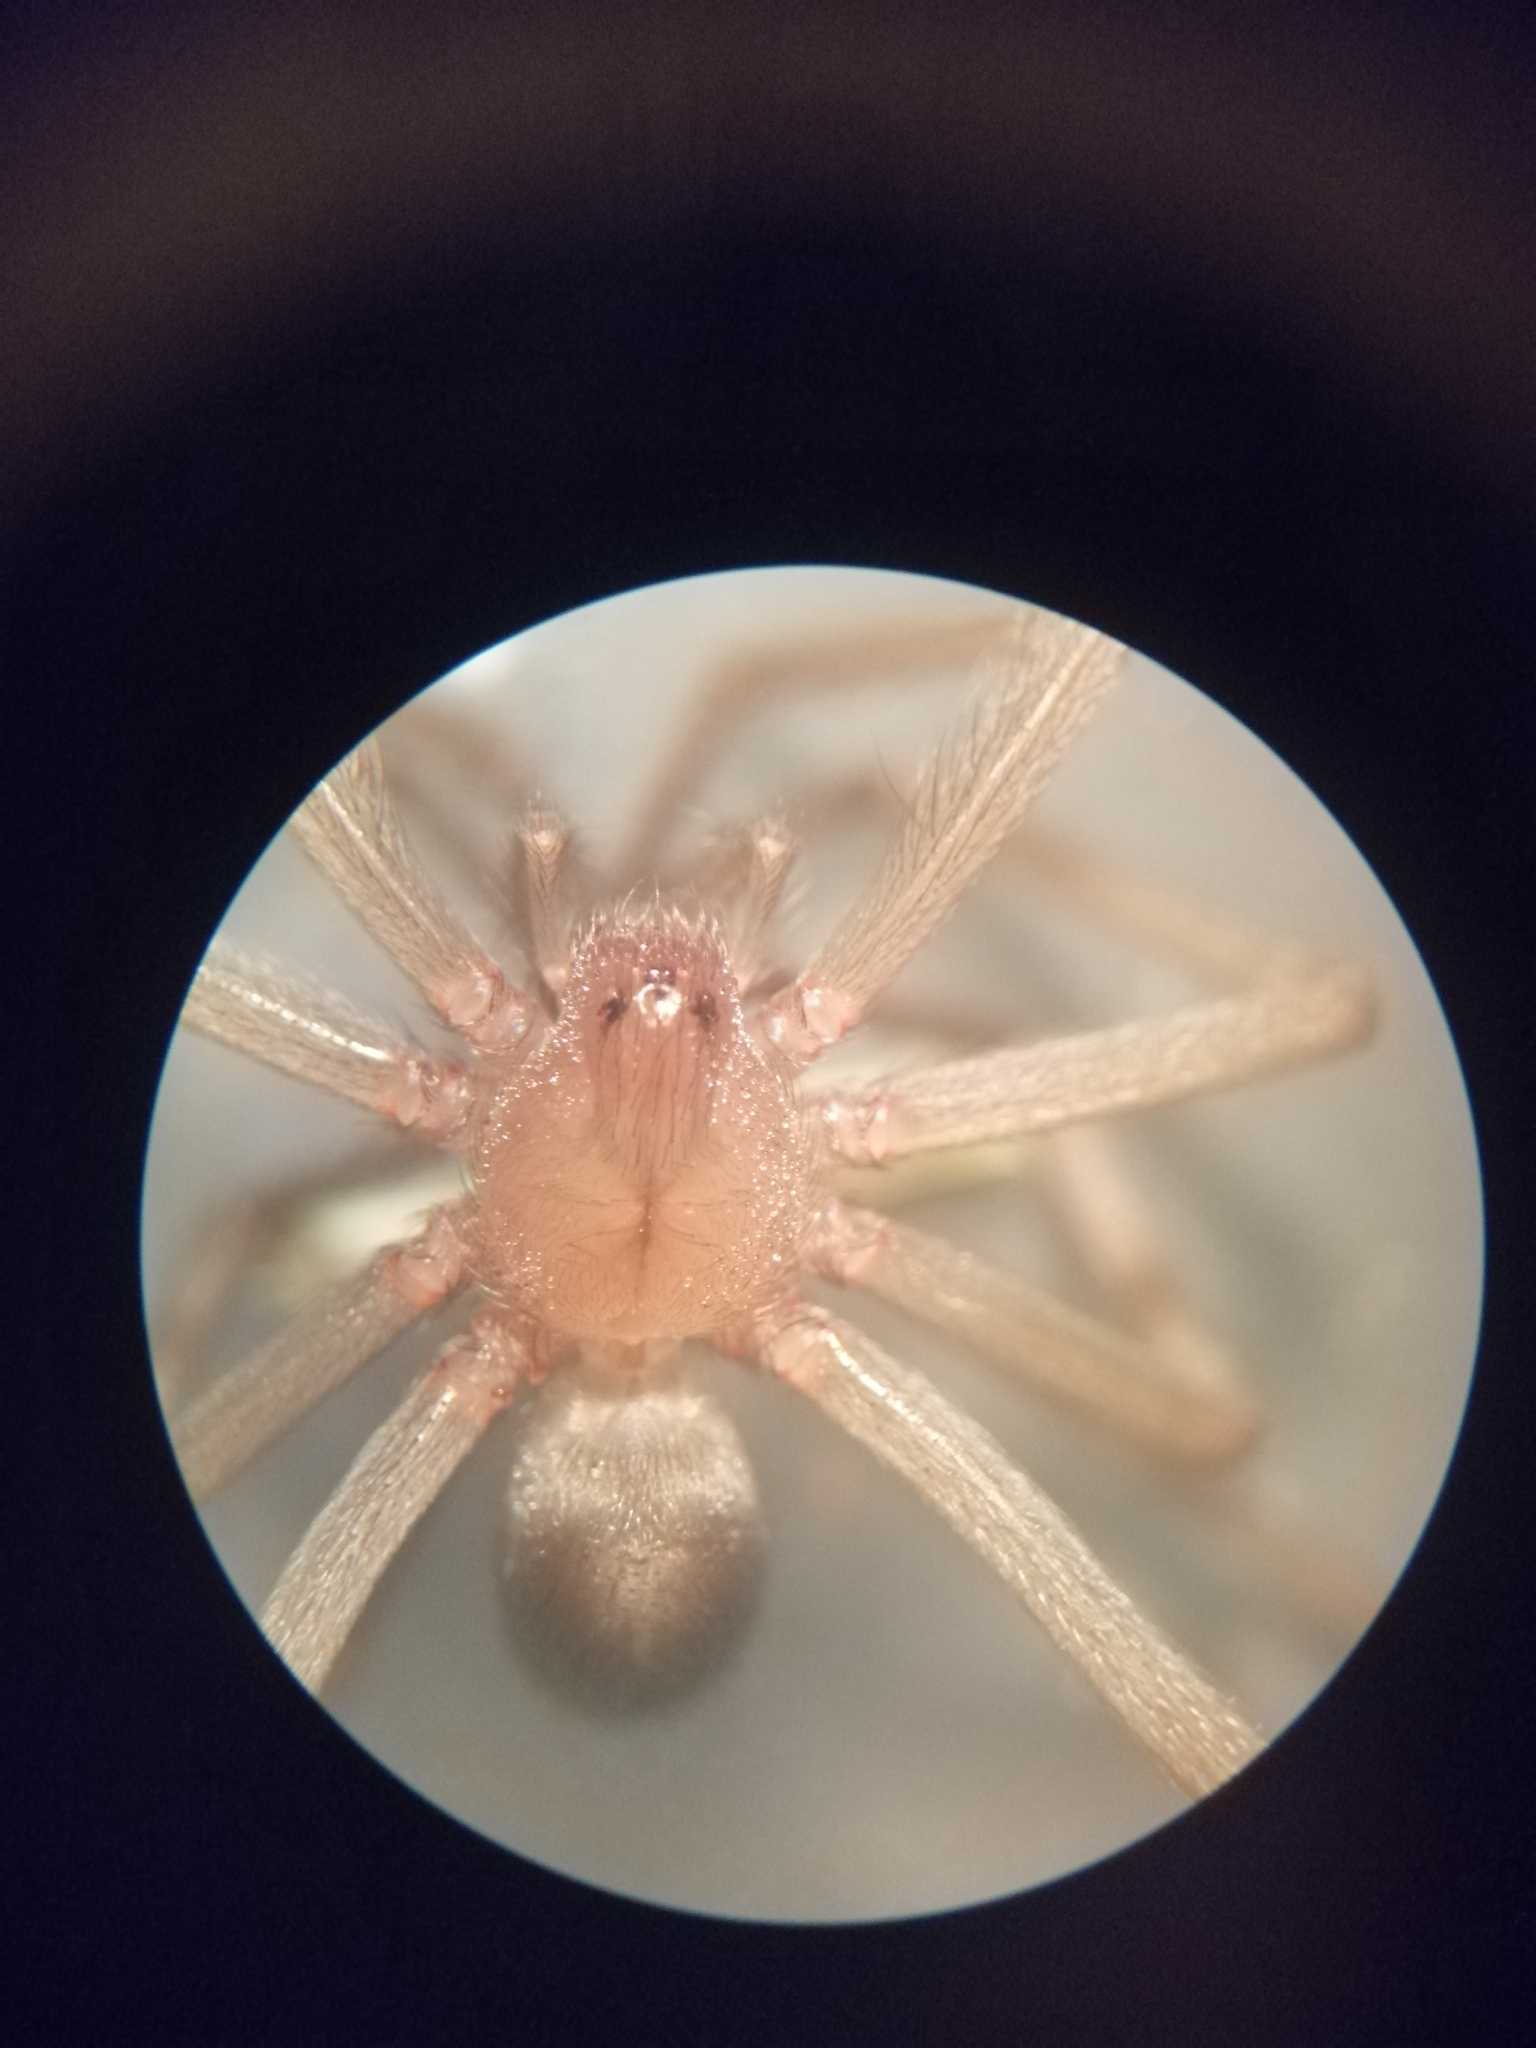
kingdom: Animalia
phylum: Arthropoda
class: Arachnida
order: Araneae
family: Sicariidae
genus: Loxosceles
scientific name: Loxosceles laeta
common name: Chilean recluse spider
